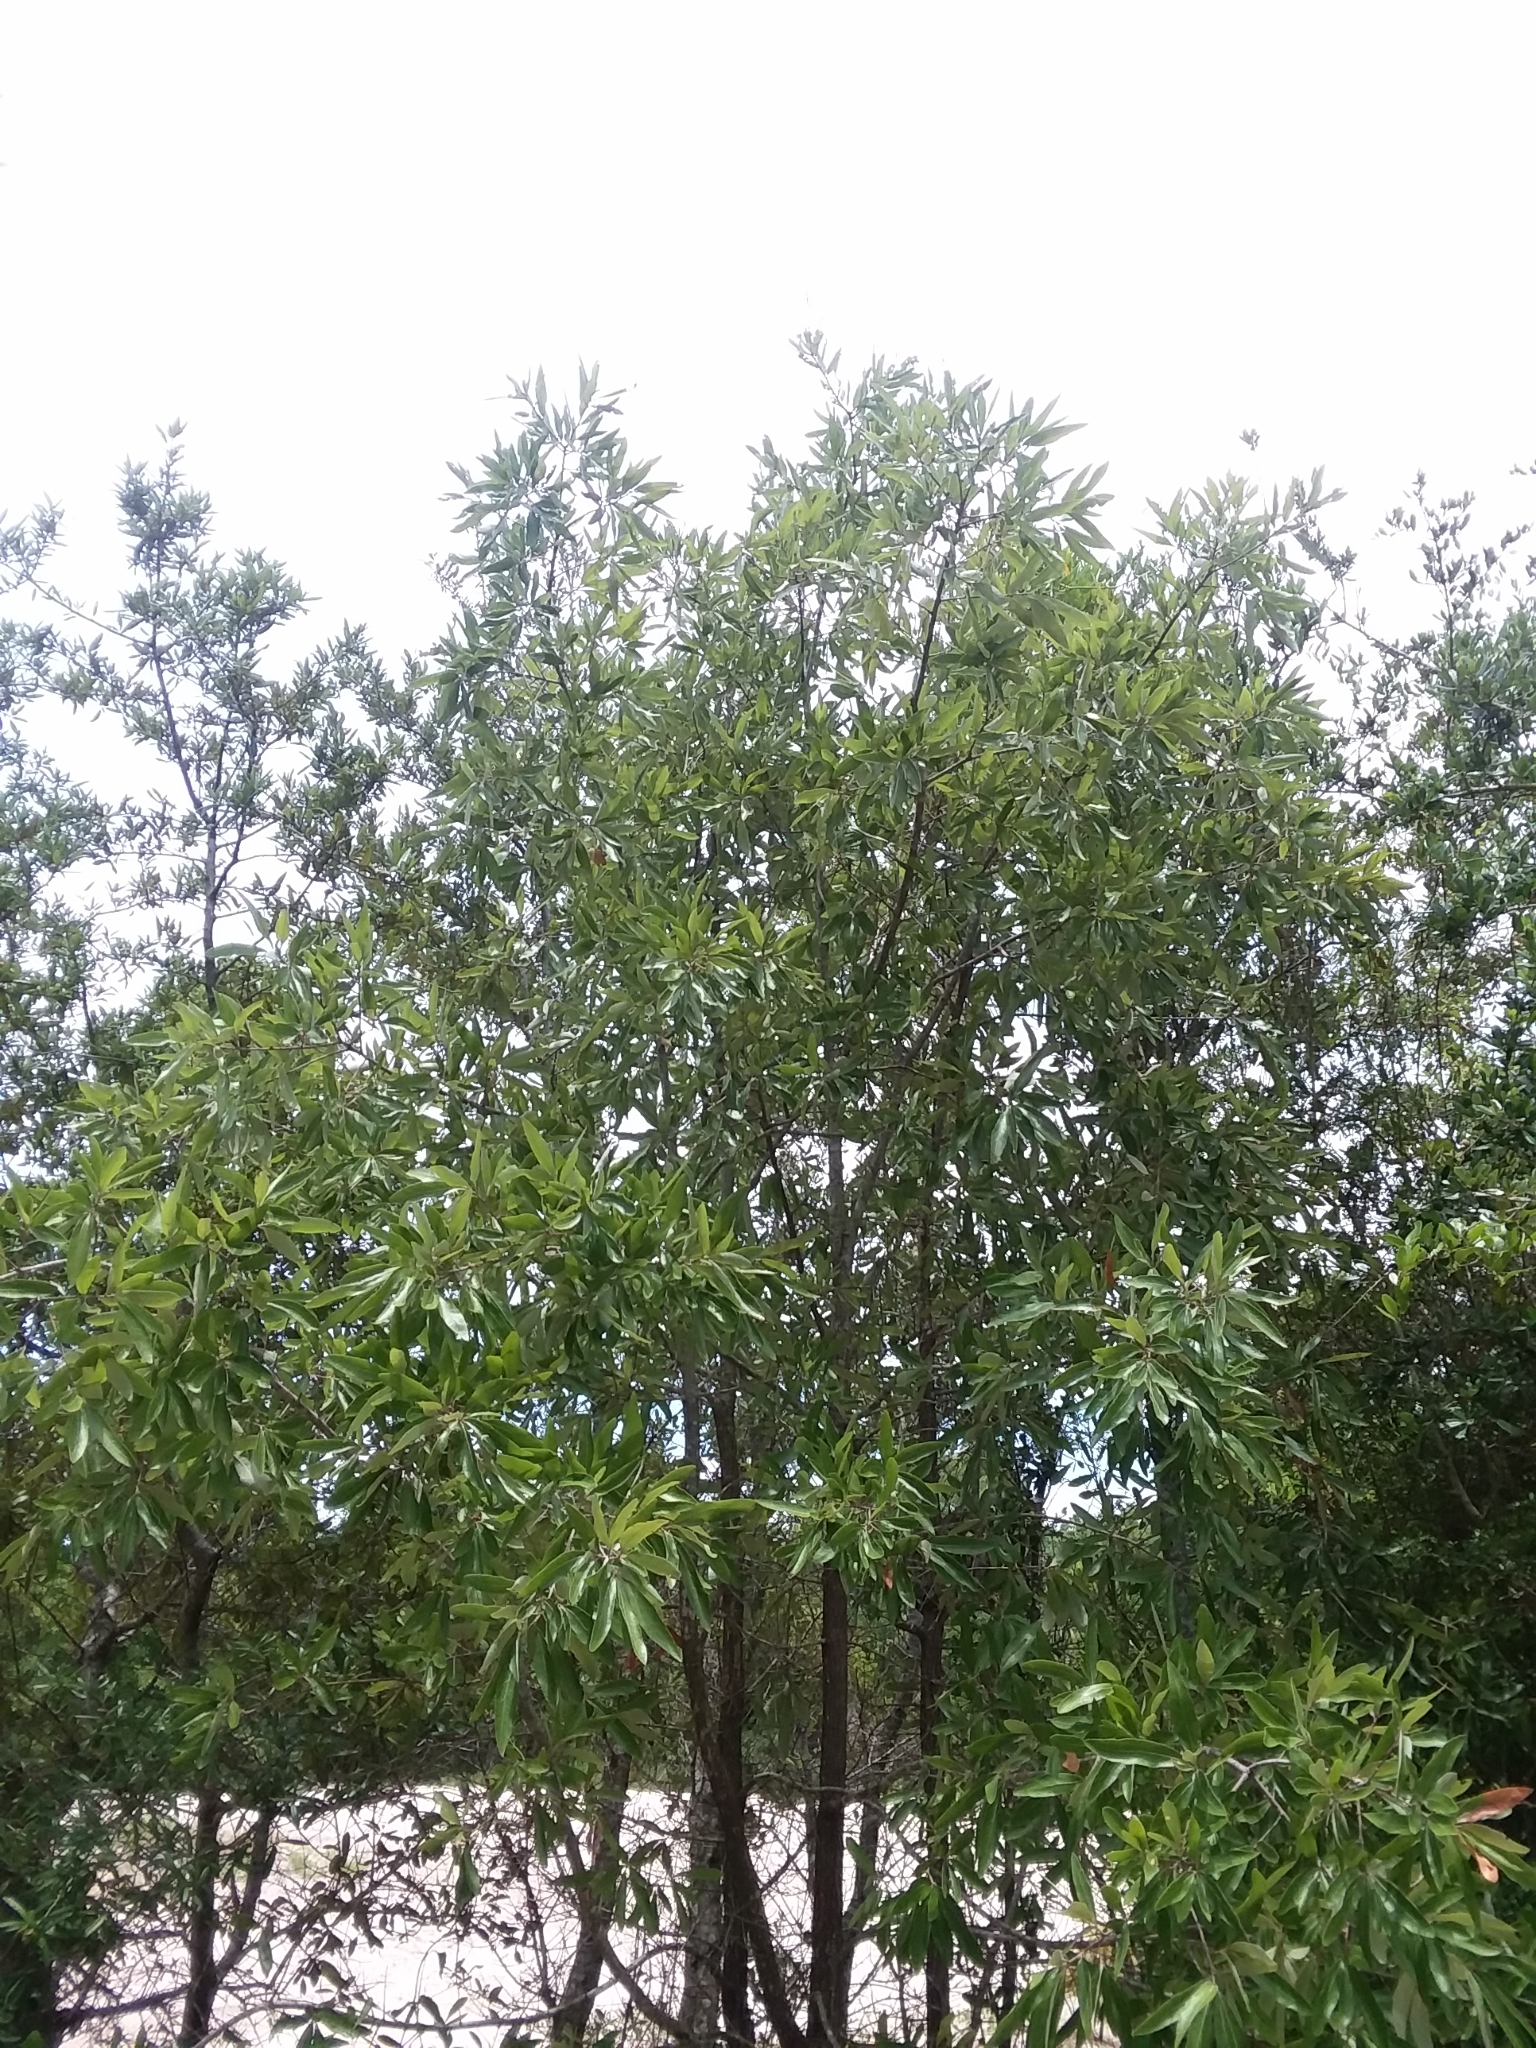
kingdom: Plantae
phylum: Tracheophyta
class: Magnoliopsida
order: Fagales
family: Fagaceae
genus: Quercus
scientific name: Quercus incana
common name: Bluejack oak
